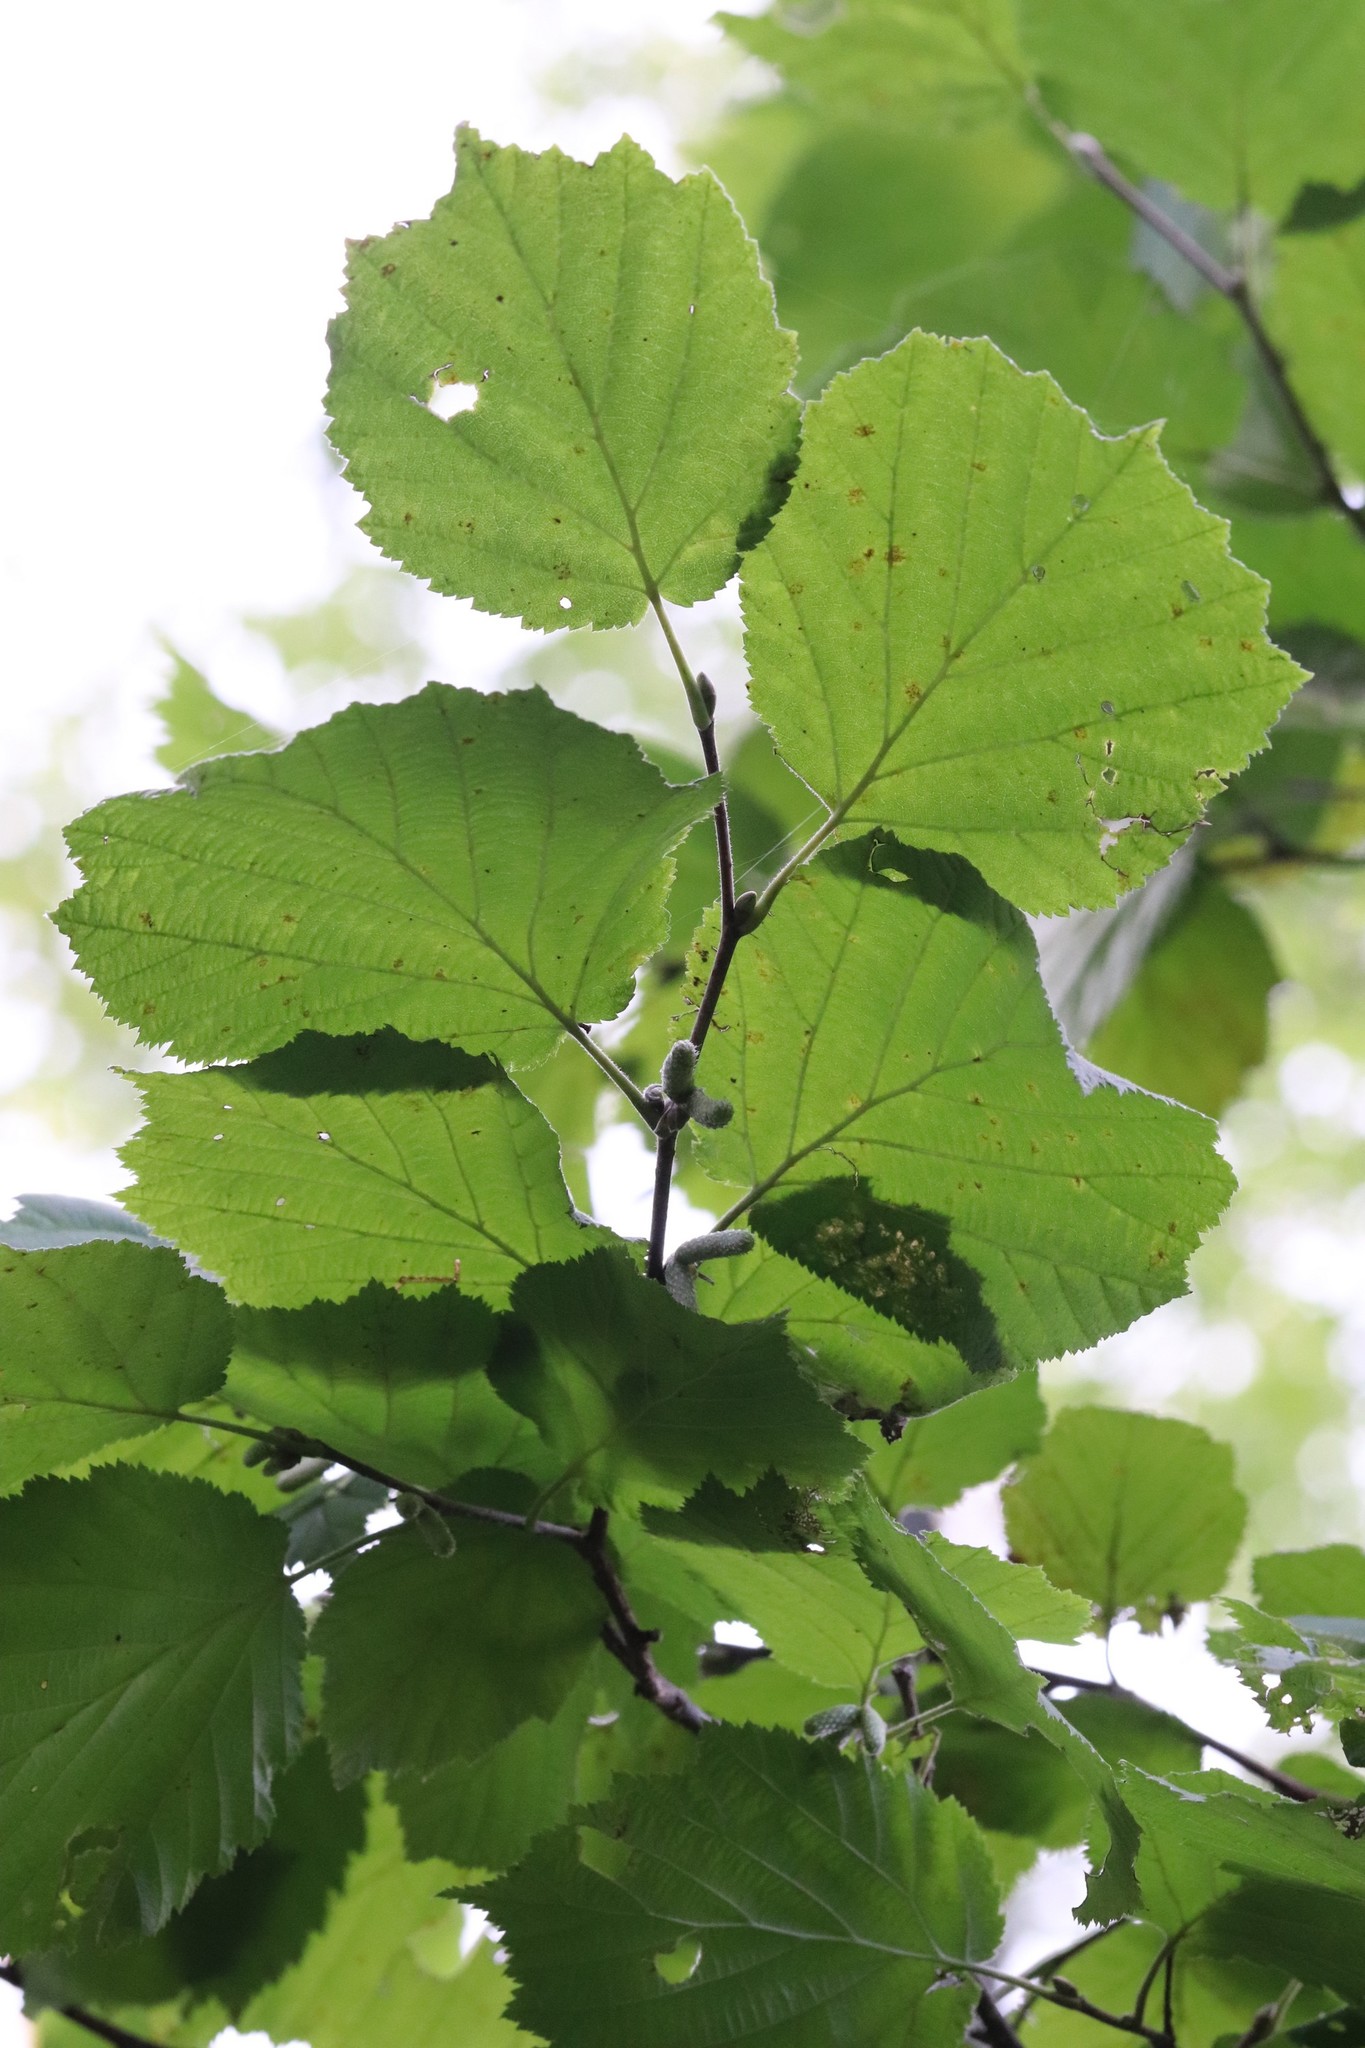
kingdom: Plantae
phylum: Tracheophyta
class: Magnoliopsida
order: Fagales
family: Betulaceae
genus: Corylus
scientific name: Corylus sieboldiana
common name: Japanese hazel
